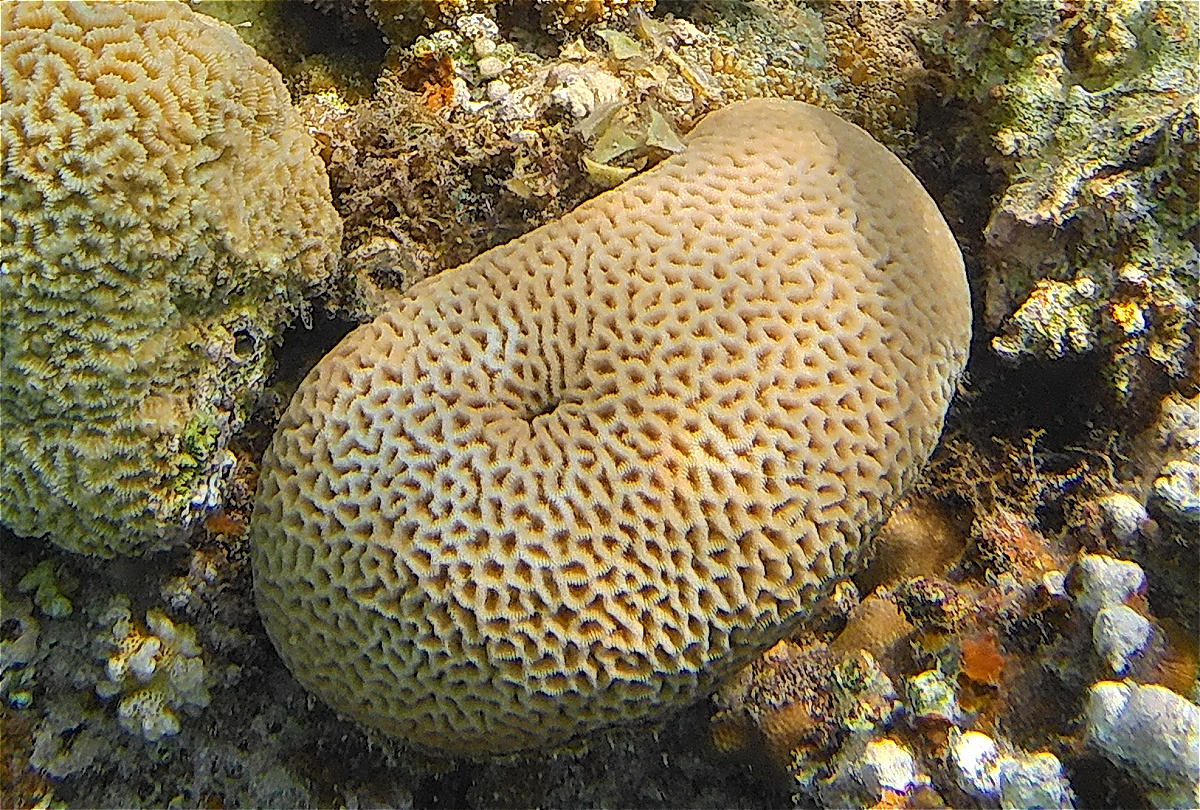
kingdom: Animalia
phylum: Cnidaria
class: Anthozoa
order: Scleractinia
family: Merulinidae
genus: Goniastrea
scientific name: Goniastrea pectinata
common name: Lesser star coral
